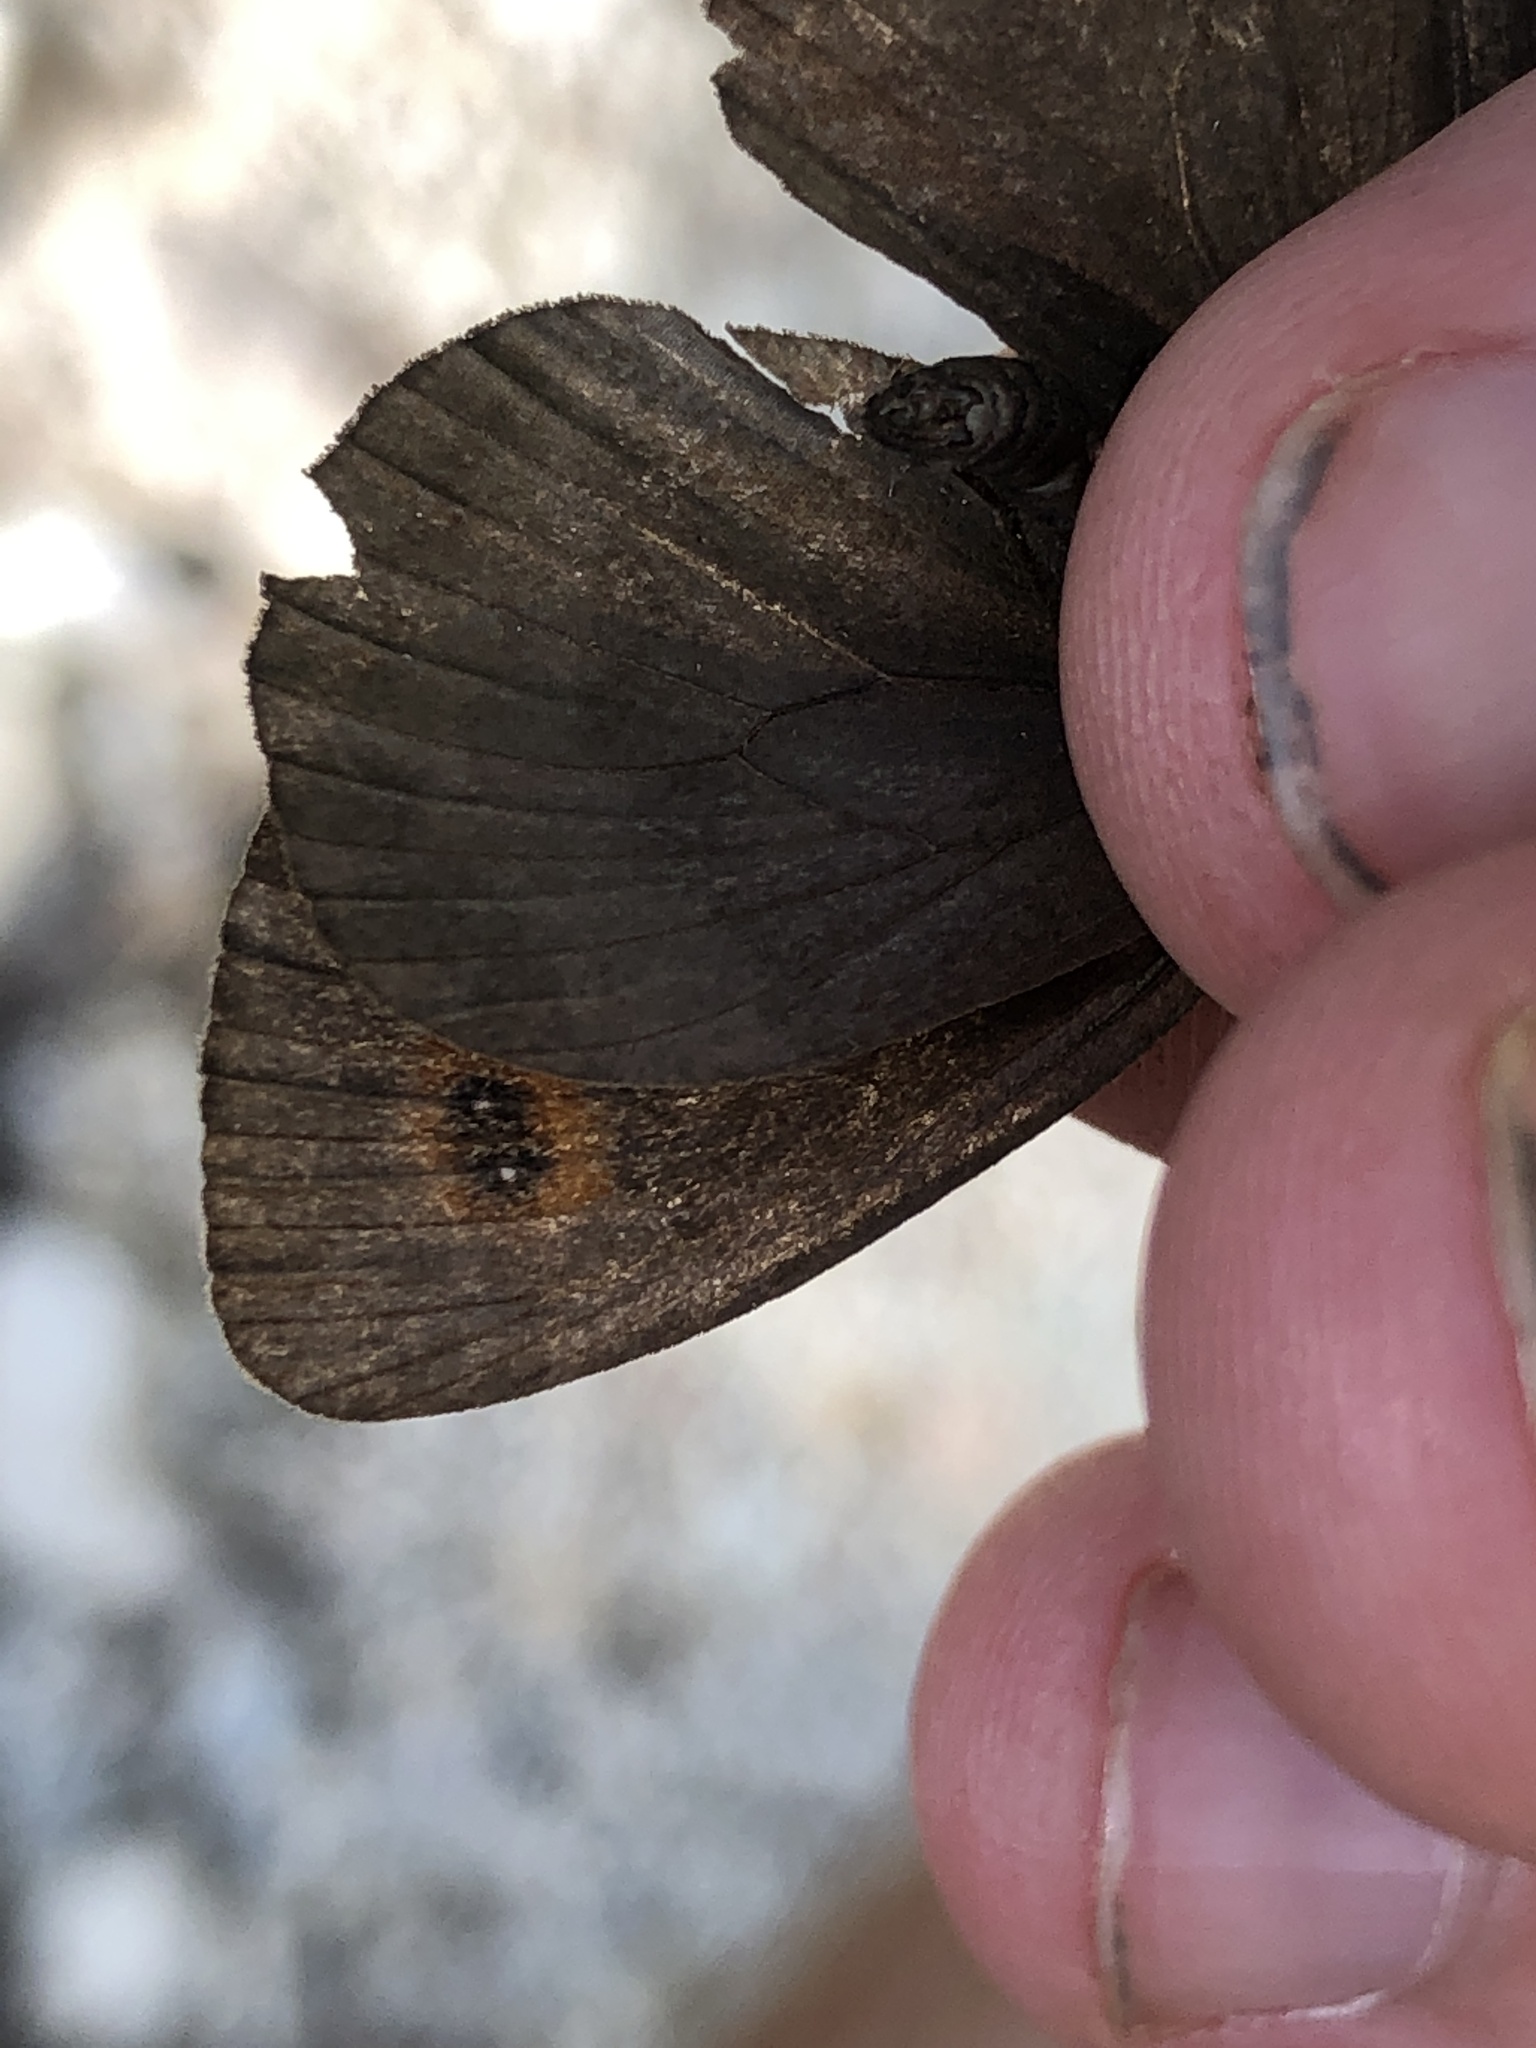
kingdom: Animalia
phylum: Arthropoda
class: Insecta
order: Lepidoptera
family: Nymphalidae
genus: Erebia
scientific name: Erebia aethiops
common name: Scotch argus
